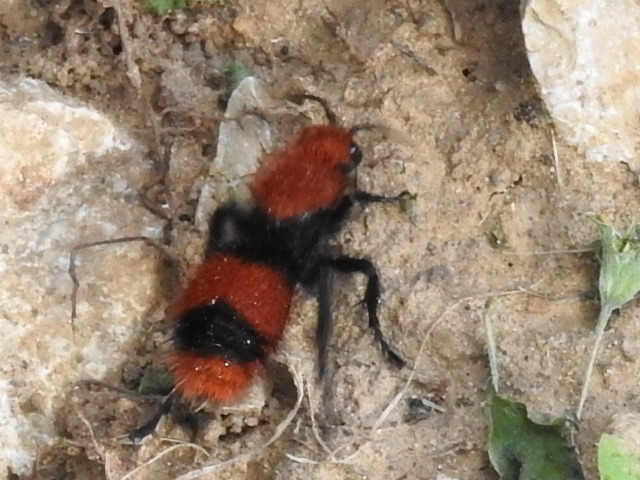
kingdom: Animalia
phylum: Arthropoda
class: Insecta
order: Hymenoptera
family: Mutillidae
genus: Dasymutilla
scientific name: Dasymutilla occidentalis
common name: Common eastern velvet ant
